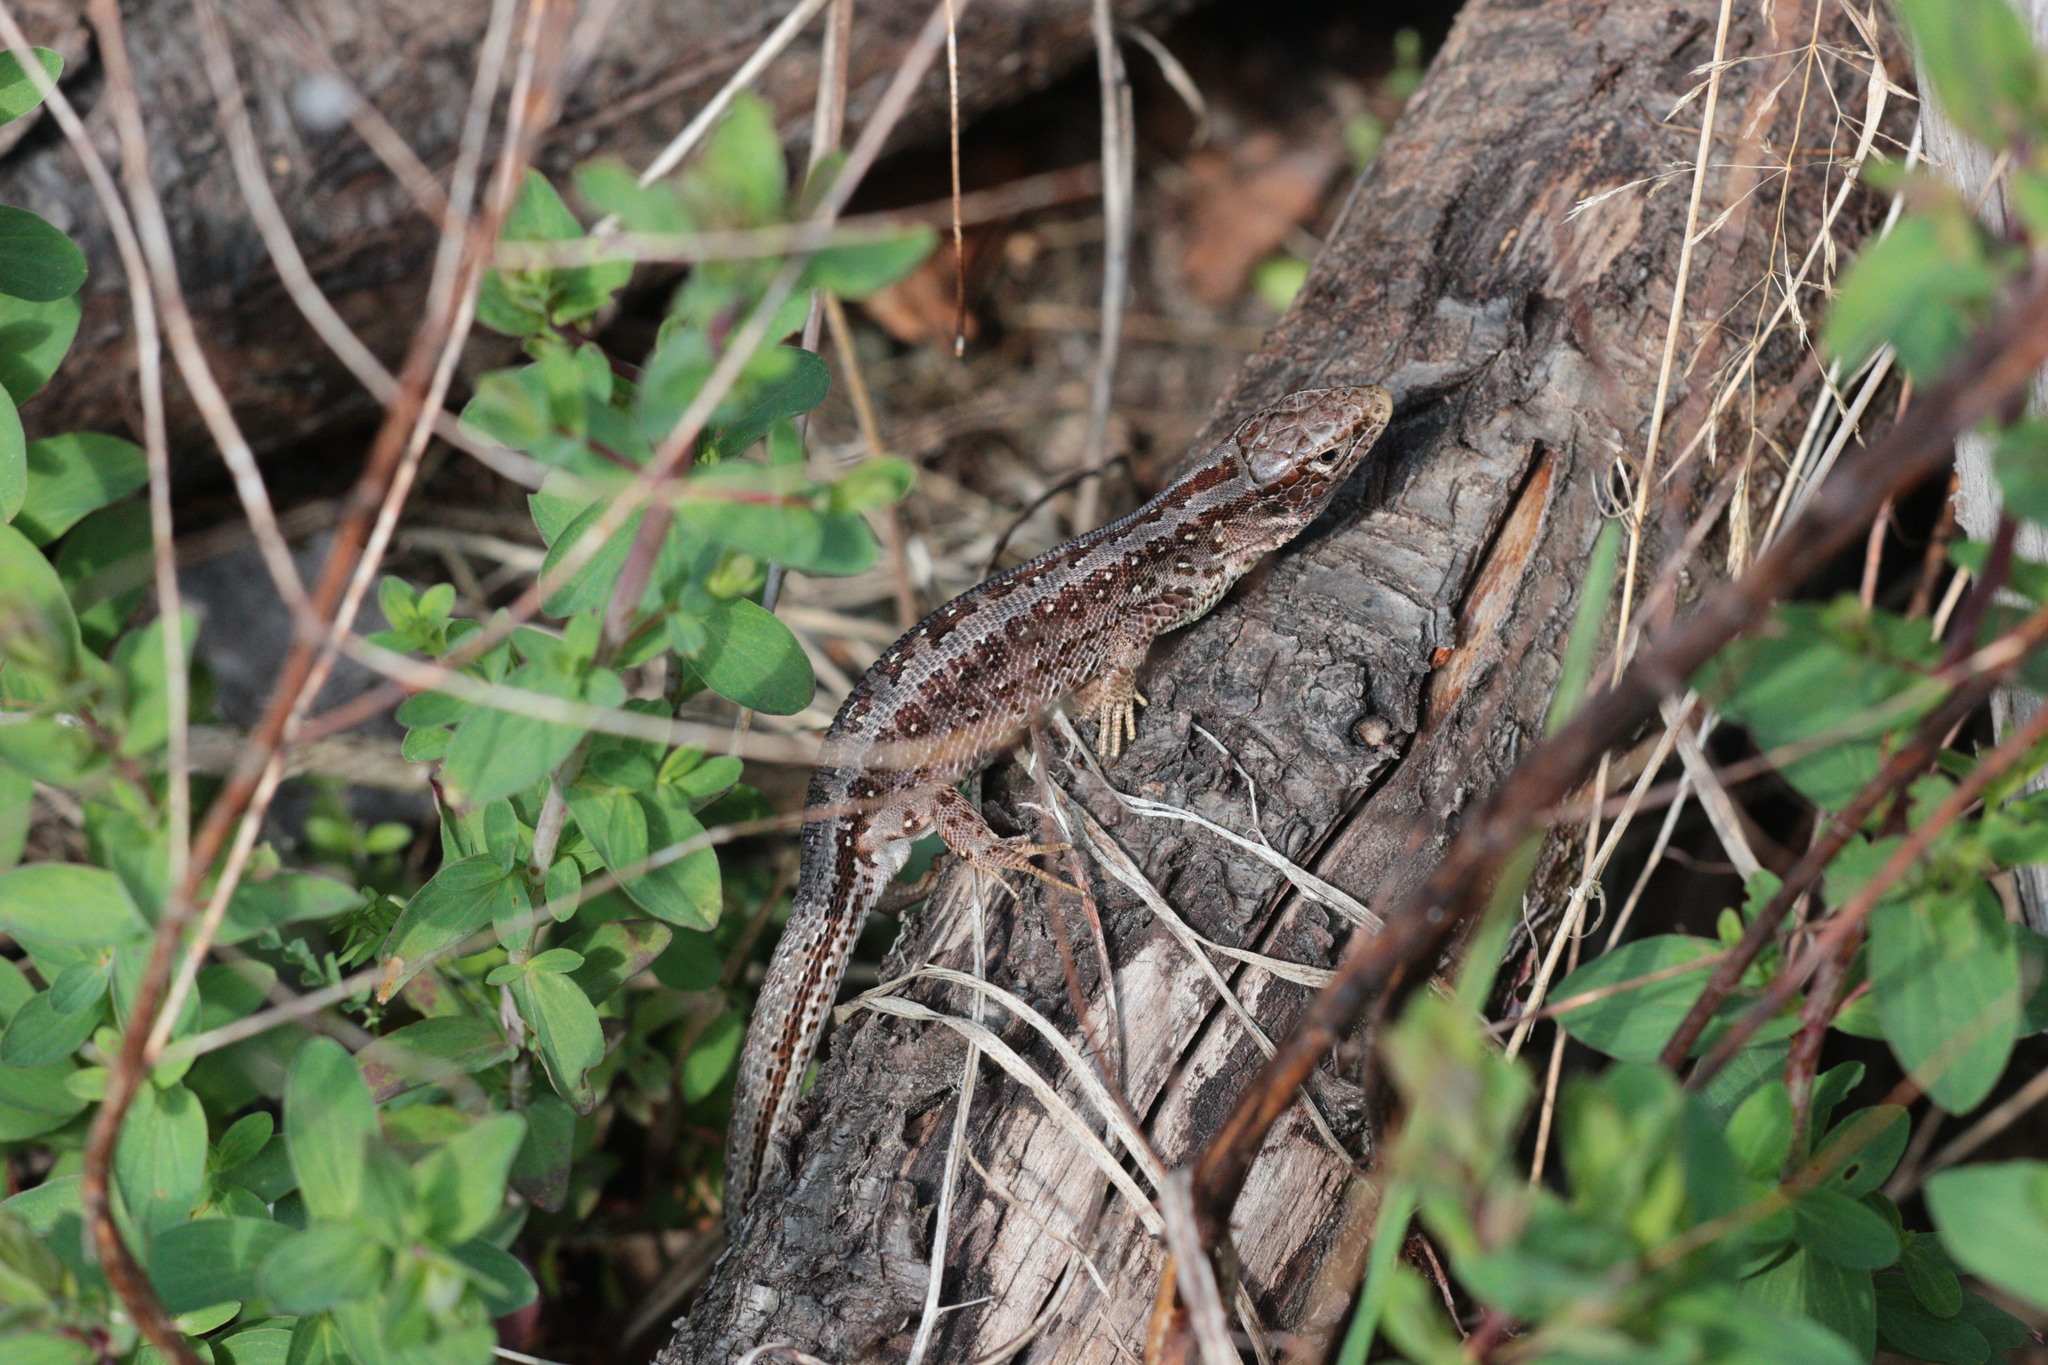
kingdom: Animalia
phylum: Chordata
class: Squamata
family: Lacertidae
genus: Lacerta
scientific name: Lacerta agilis
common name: Sand lizard
